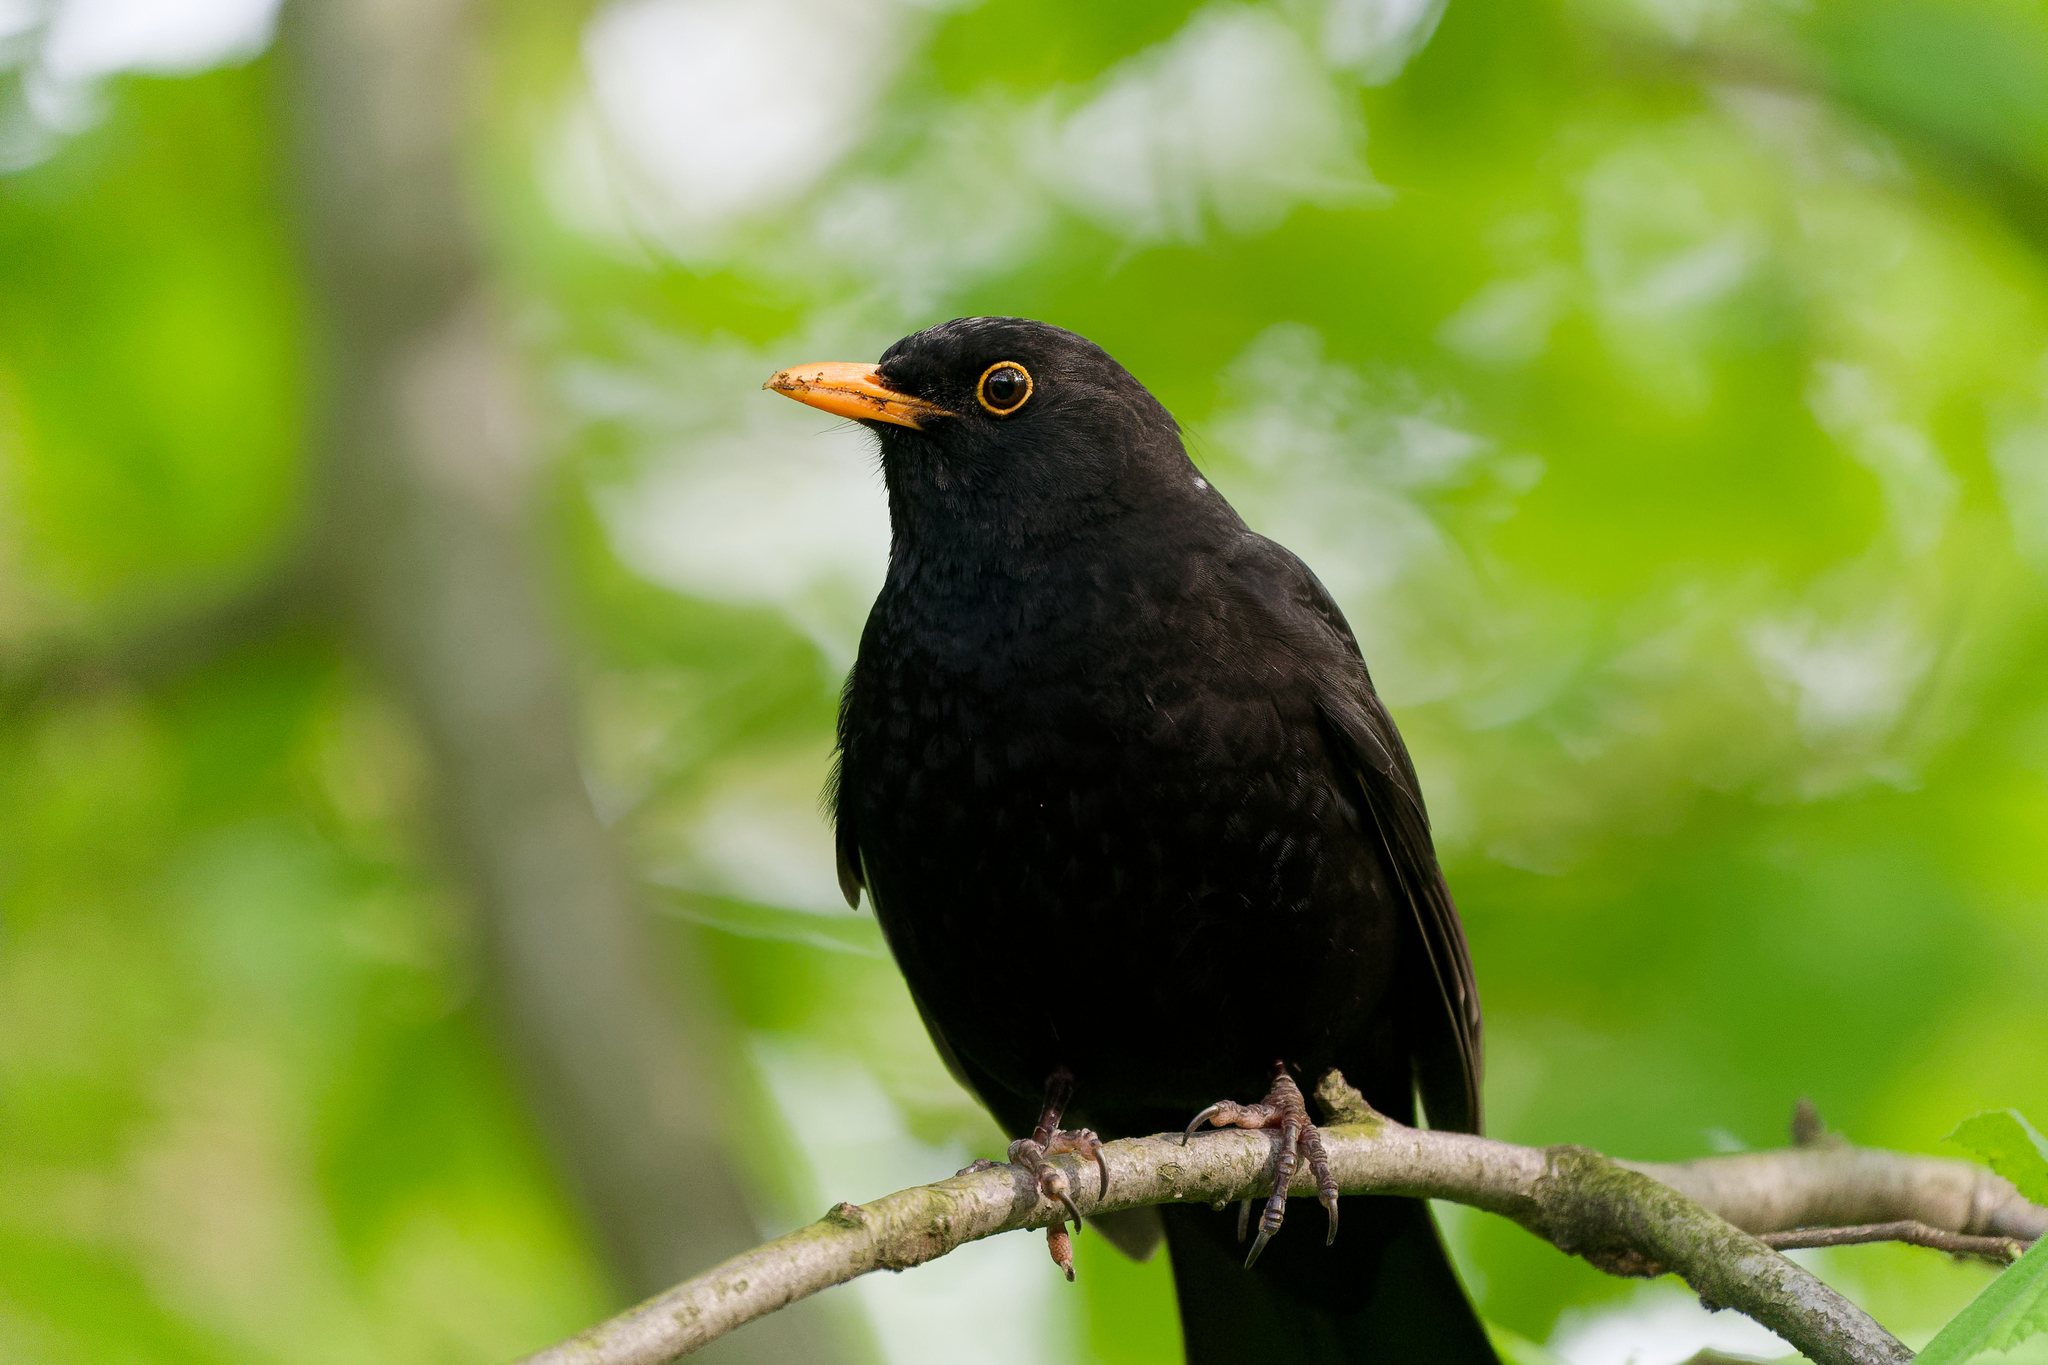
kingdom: Animalia
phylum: Chordata
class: Aves
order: Passeriformes
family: Turdidae
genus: Turdus
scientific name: Turdus merula
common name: Common blackbird
